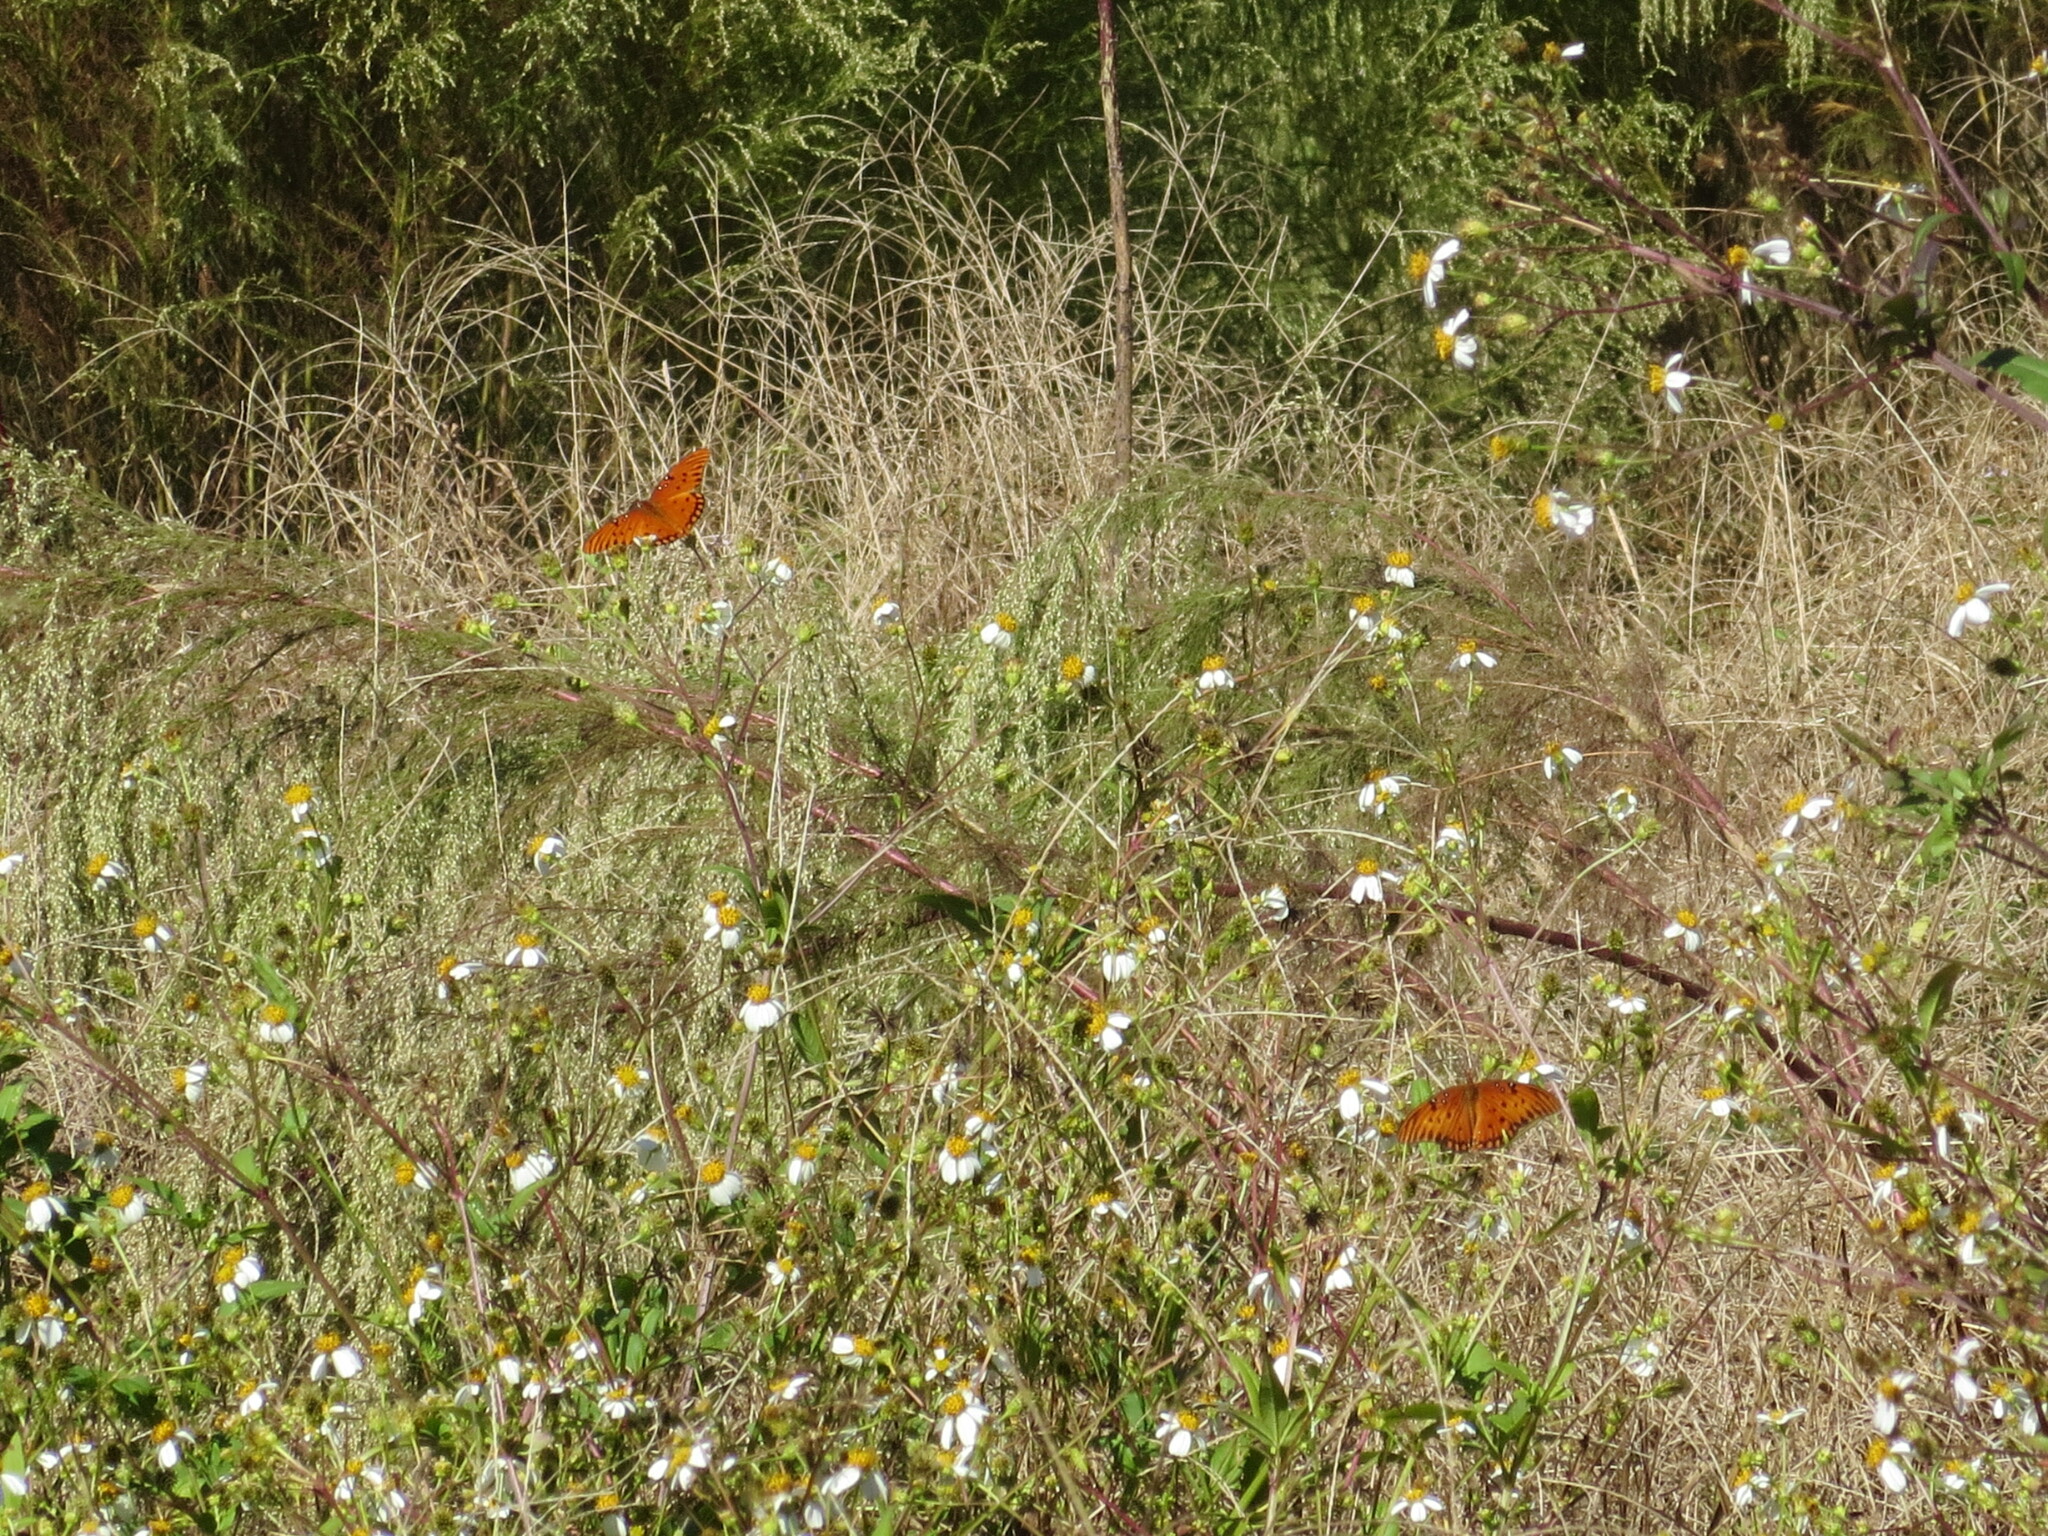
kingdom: Animalia
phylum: Arthropoda
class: Insecta
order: Lepidoptera
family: Nymphalidae
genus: Dione
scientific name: Dione vanillae
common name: Gulf fritillary
